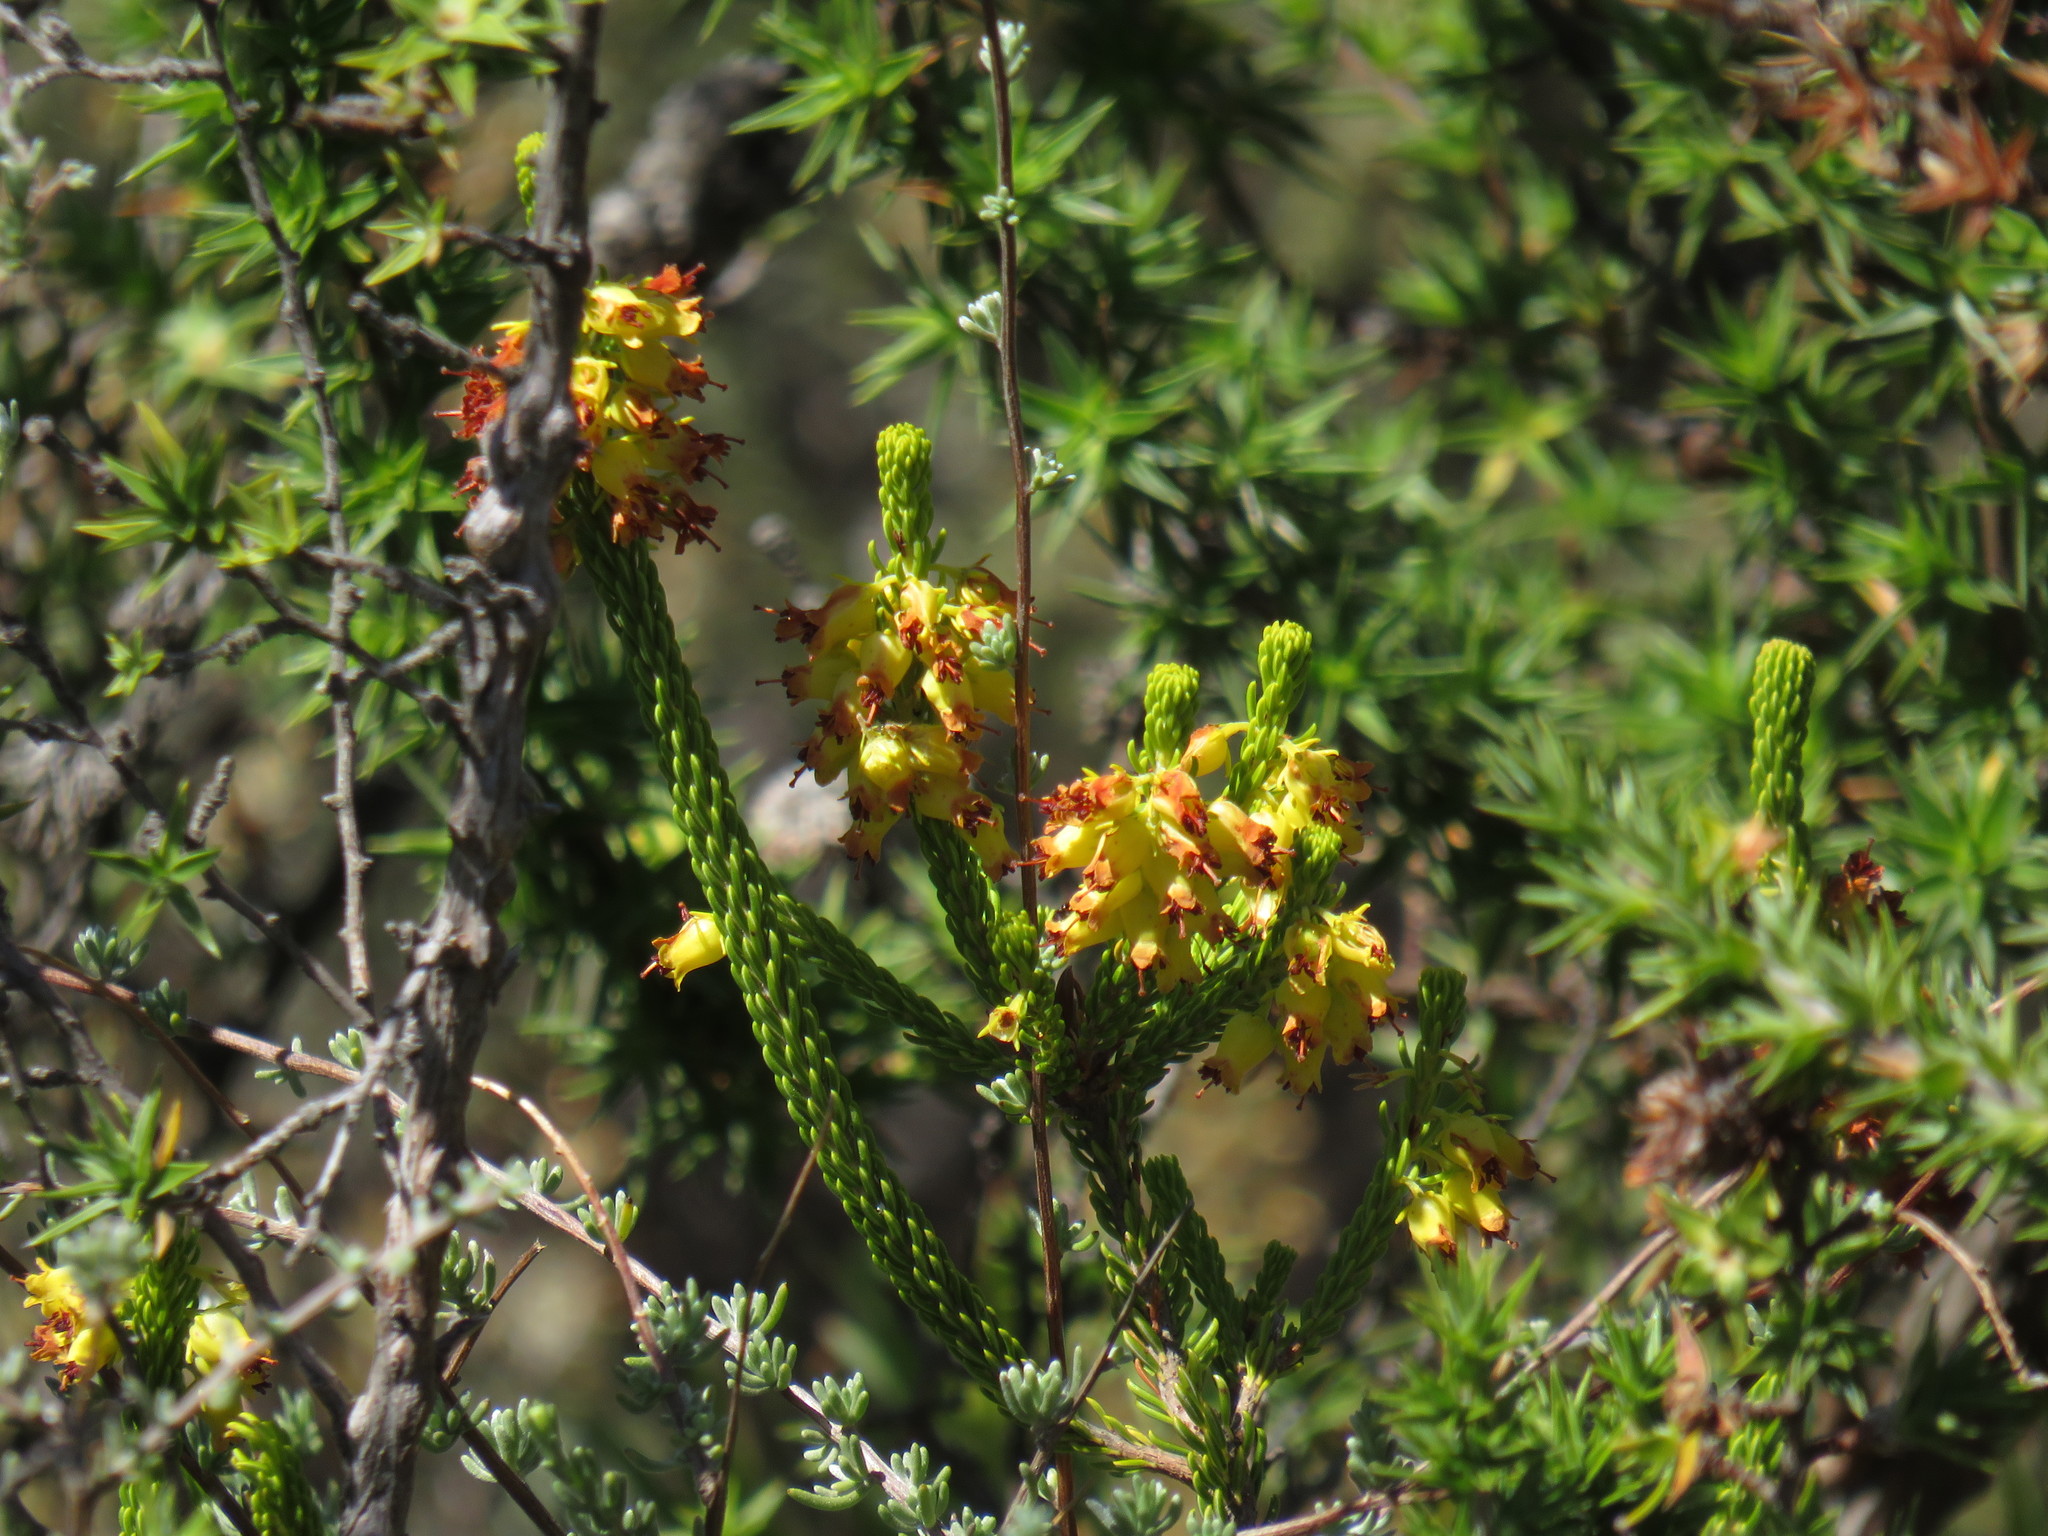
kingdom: Plantae
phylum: Tracheophyta
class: Magnoliopsida
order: Ericales
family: Ericaceae
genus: Erica
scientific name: Erica parilis
